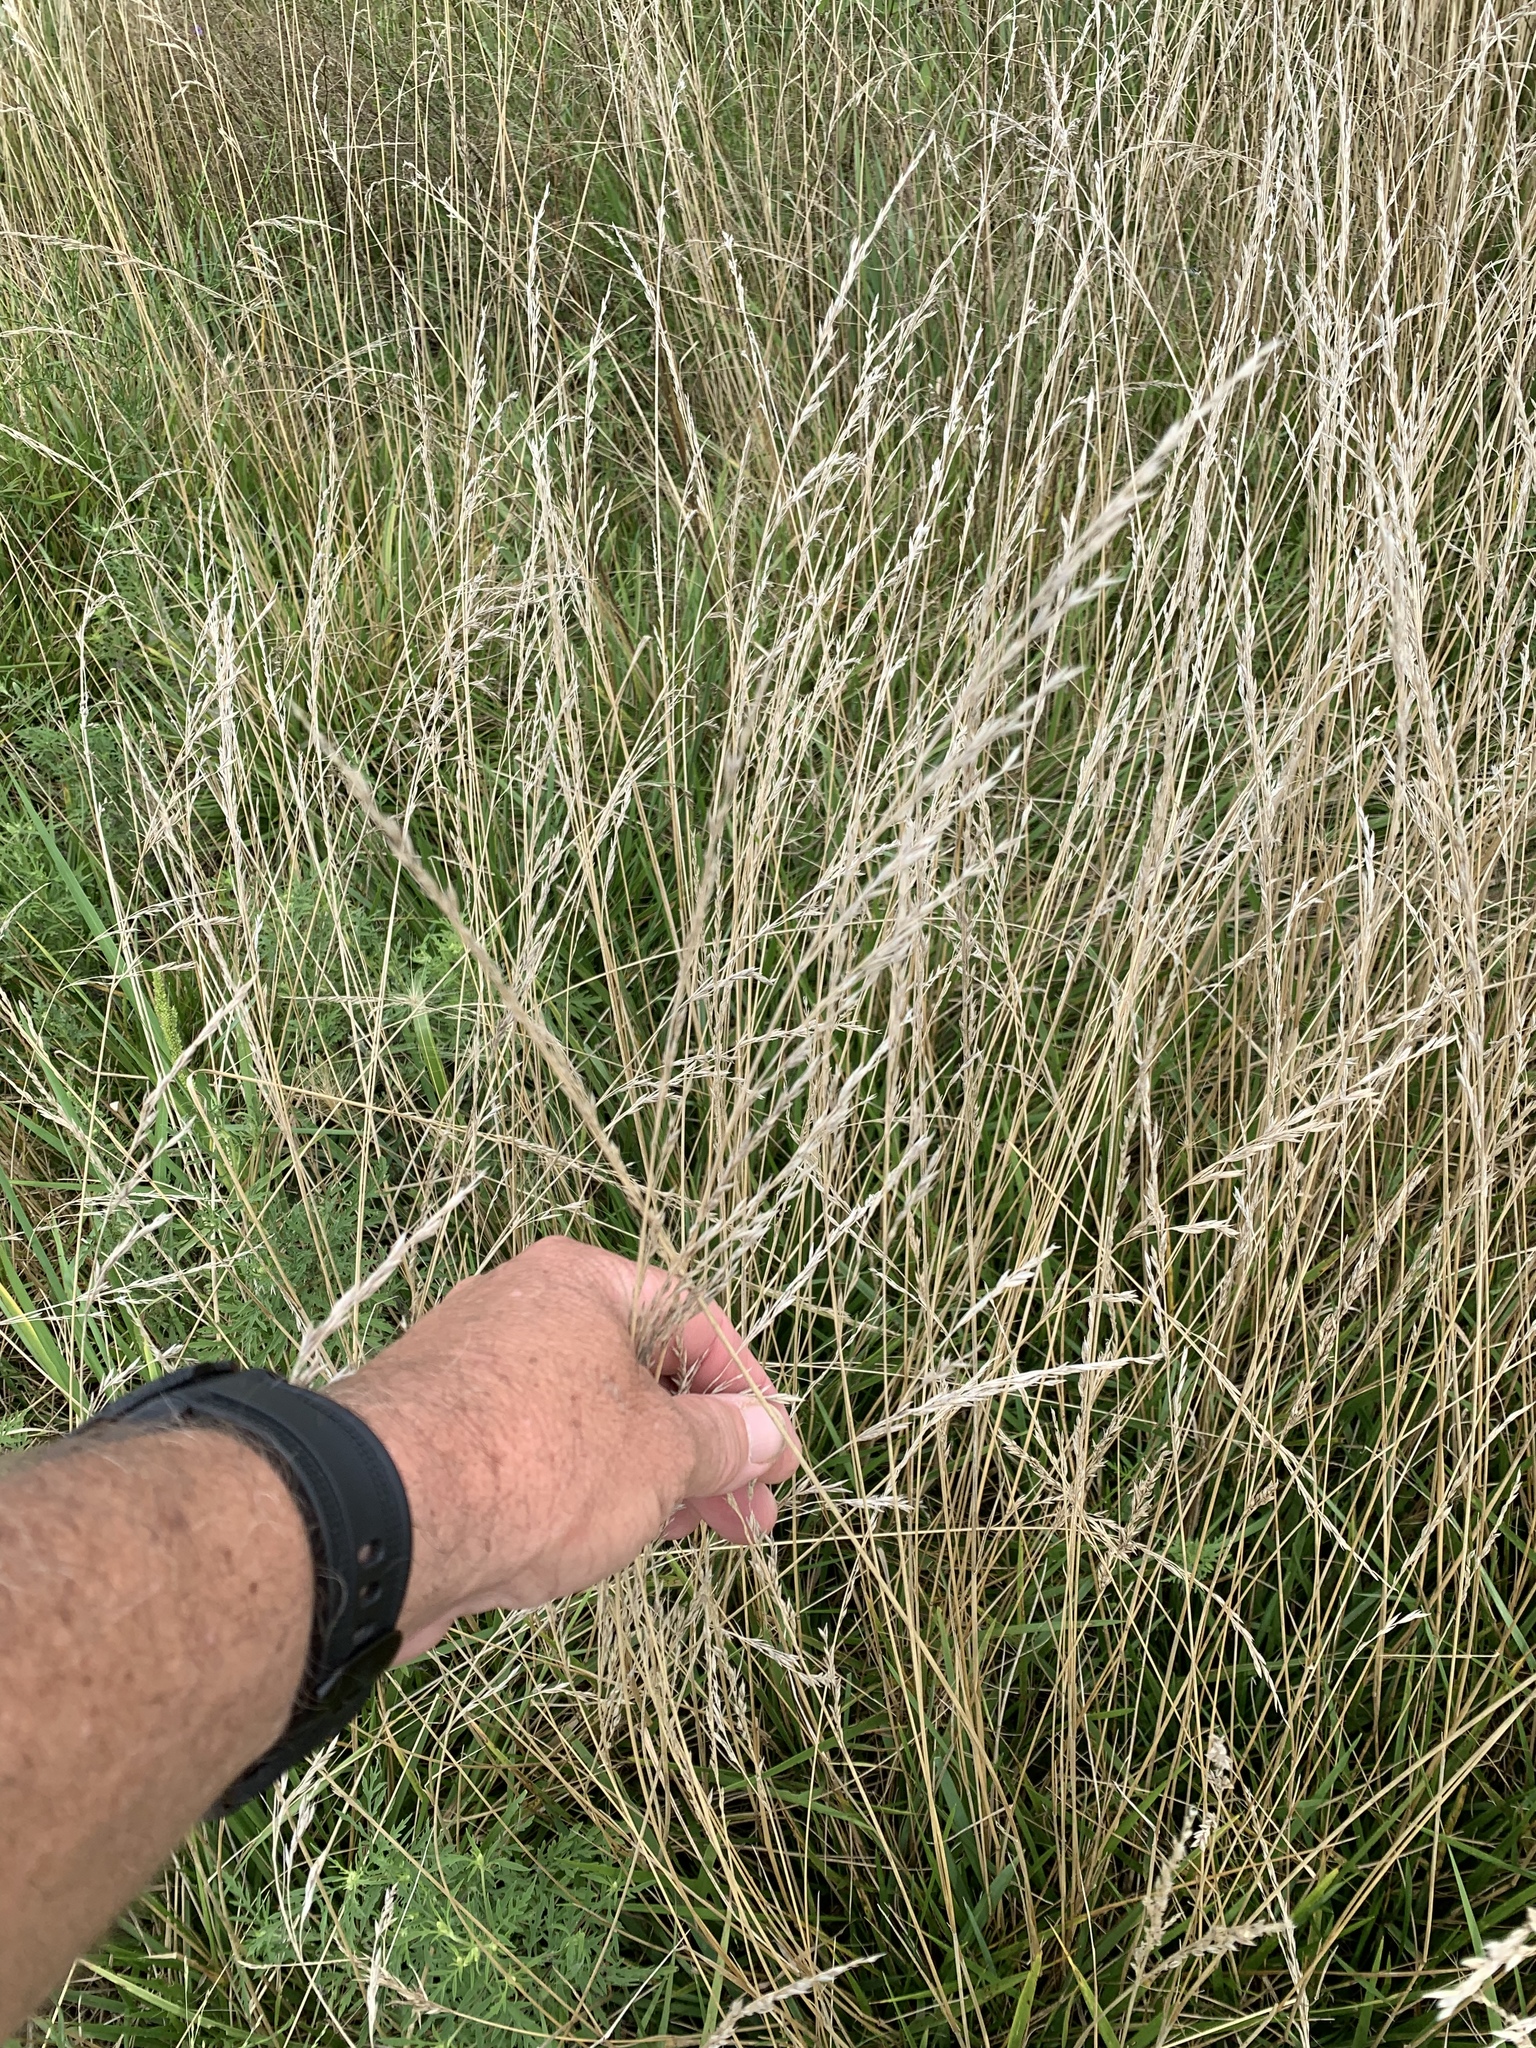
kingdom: Plantae
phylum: Tracheophyta
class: Liliopsida
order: Poales
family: Poaceae
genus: Lolium
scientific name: Lolium arundinaceum
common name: Reed fescue
